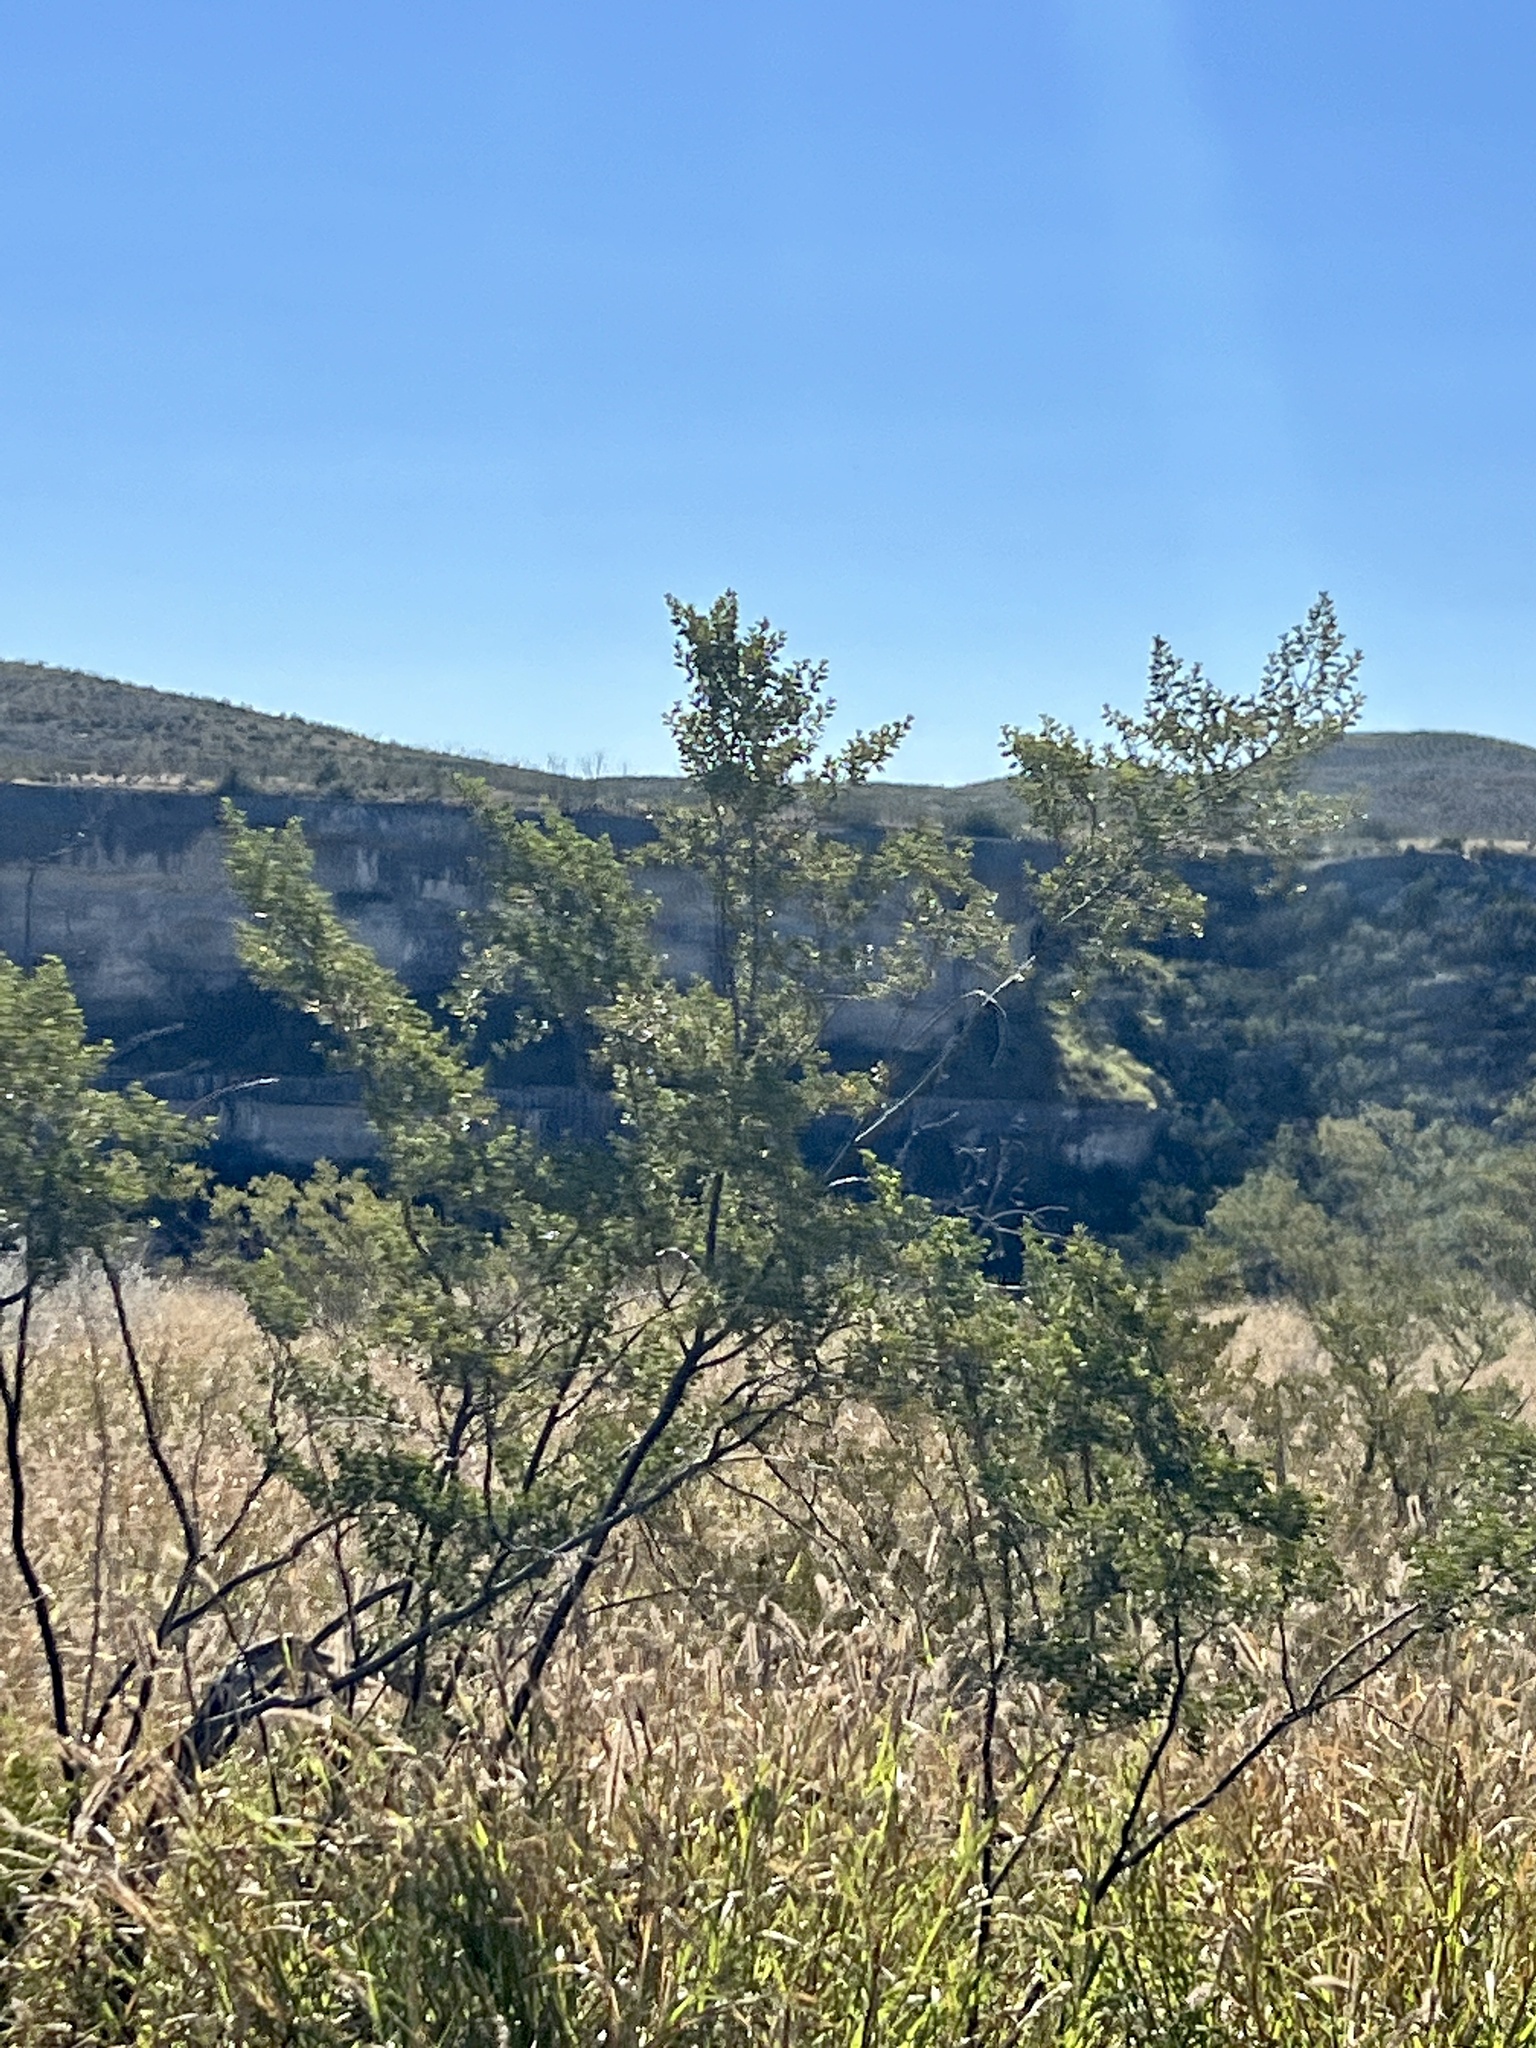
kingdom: Plantae
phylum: Tracheophyta
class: Magnoliopsida
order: Zygophyllales
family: Zygophyllaceae
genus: Larrea
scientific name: Larrea tridentata
